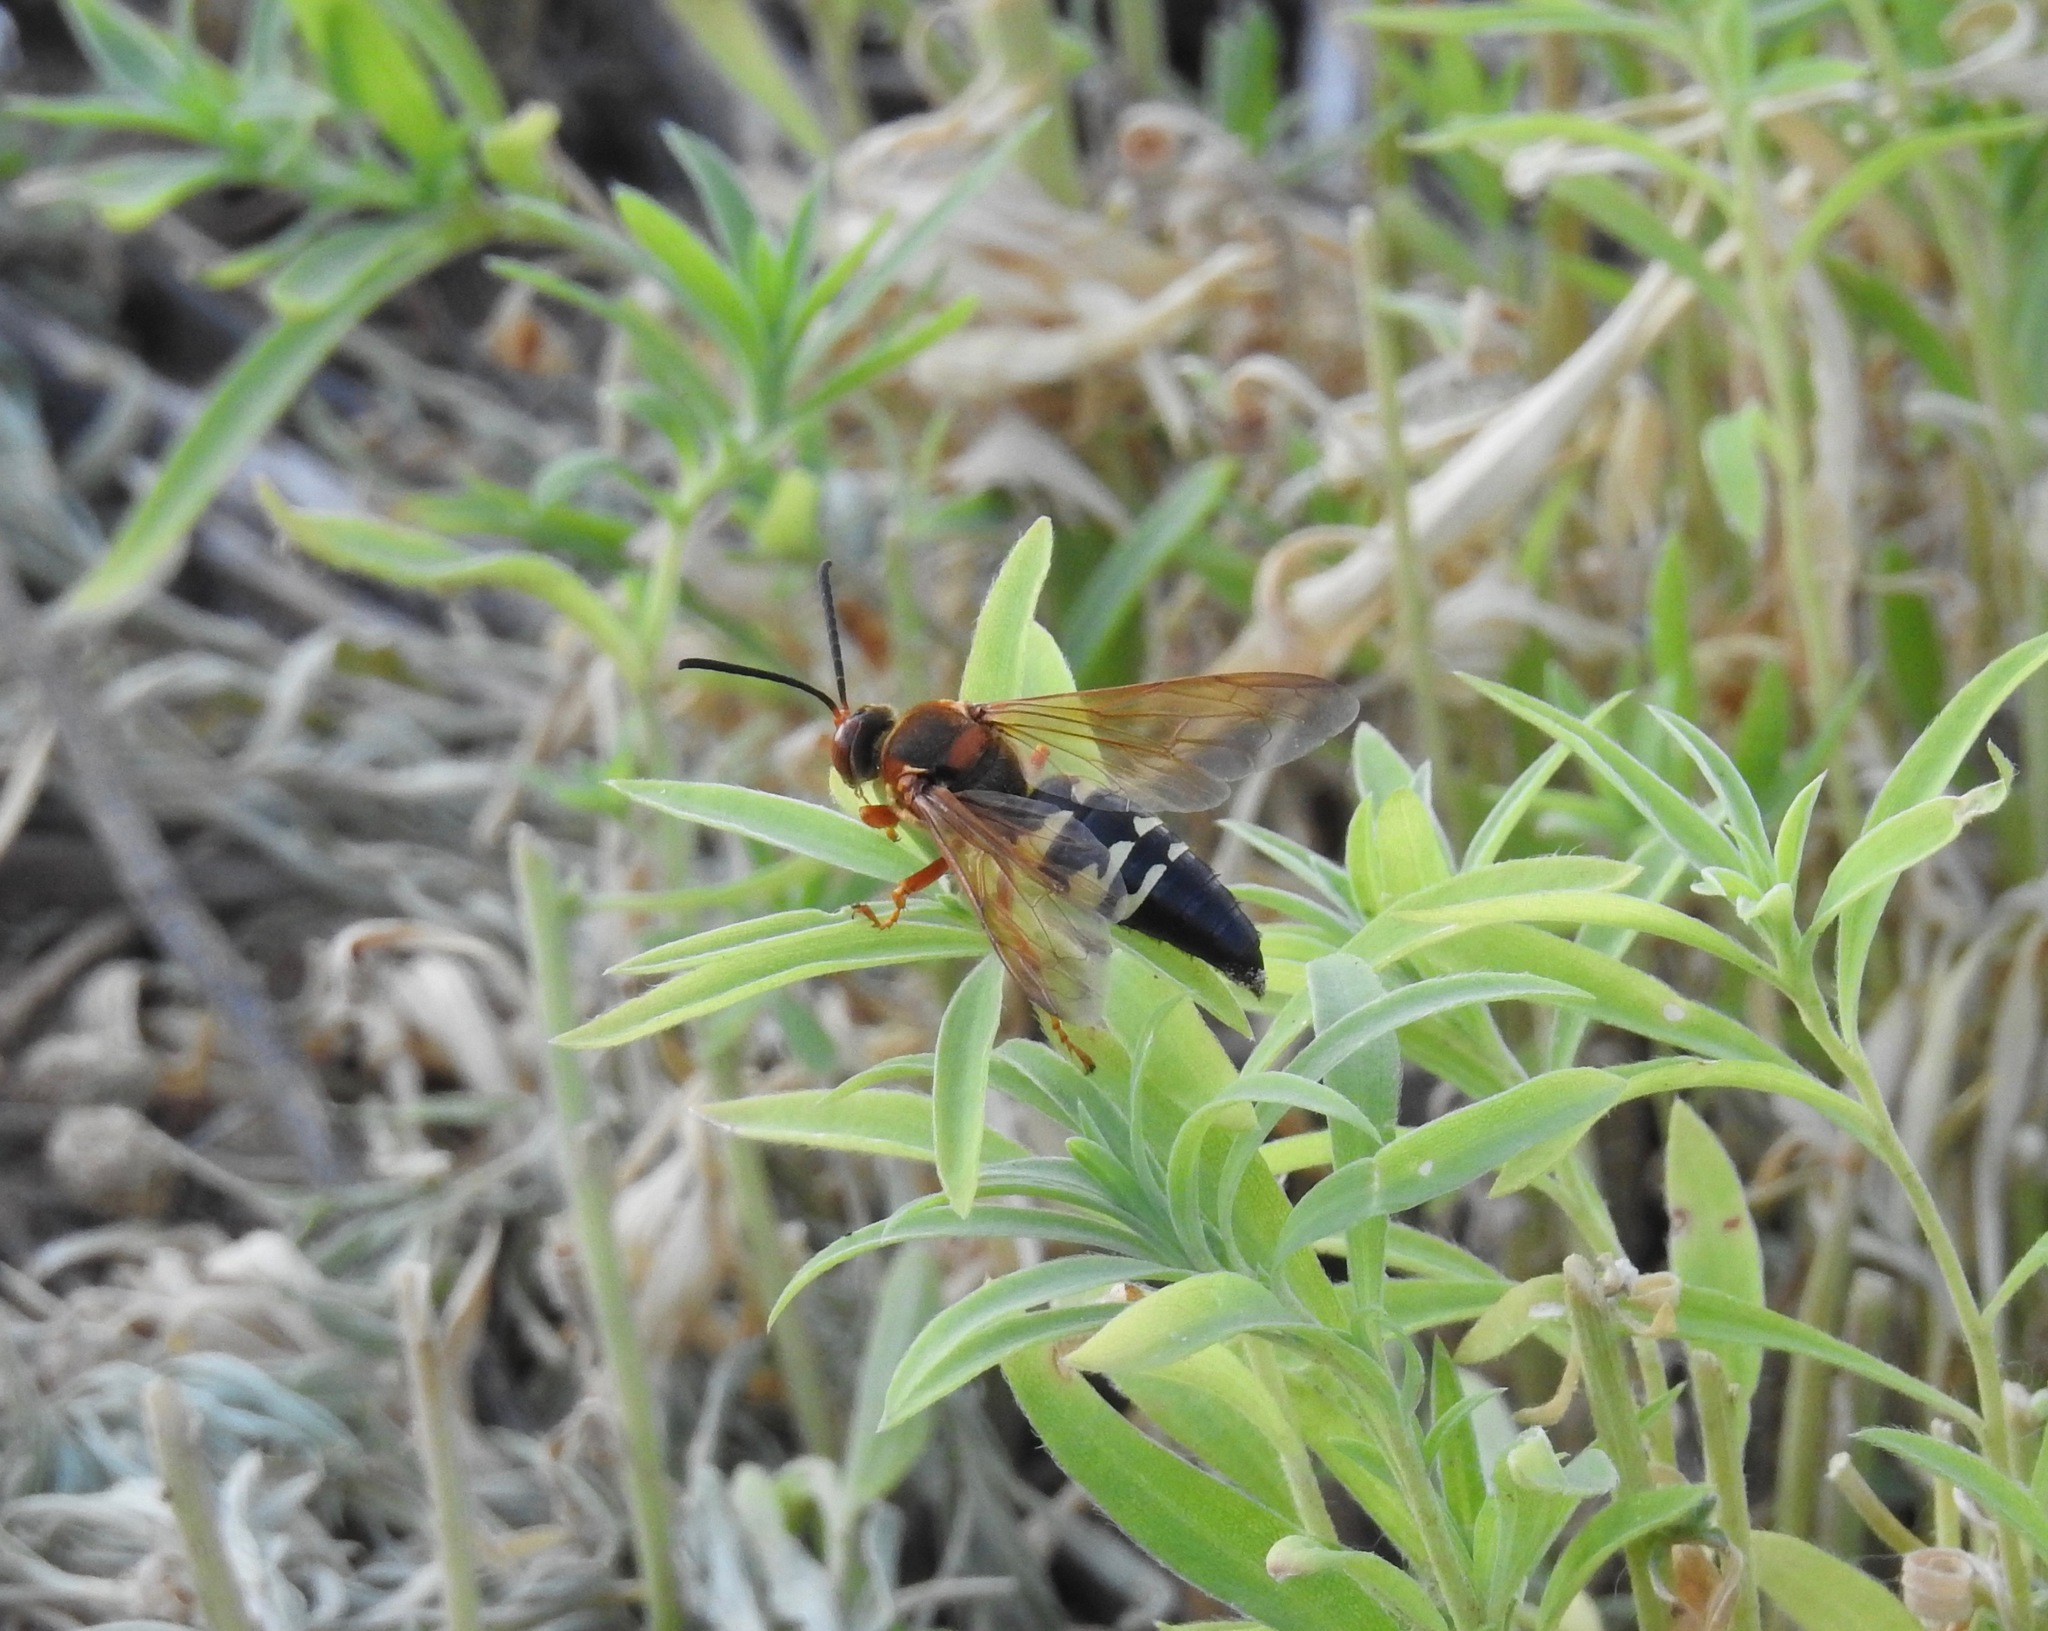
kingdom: Animalia
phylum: Arthropoda
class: Insecta
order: Hymenoptera
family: Crabronidae
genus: Sphecius
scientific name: Sphecius speciosus
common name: Cicada killer
